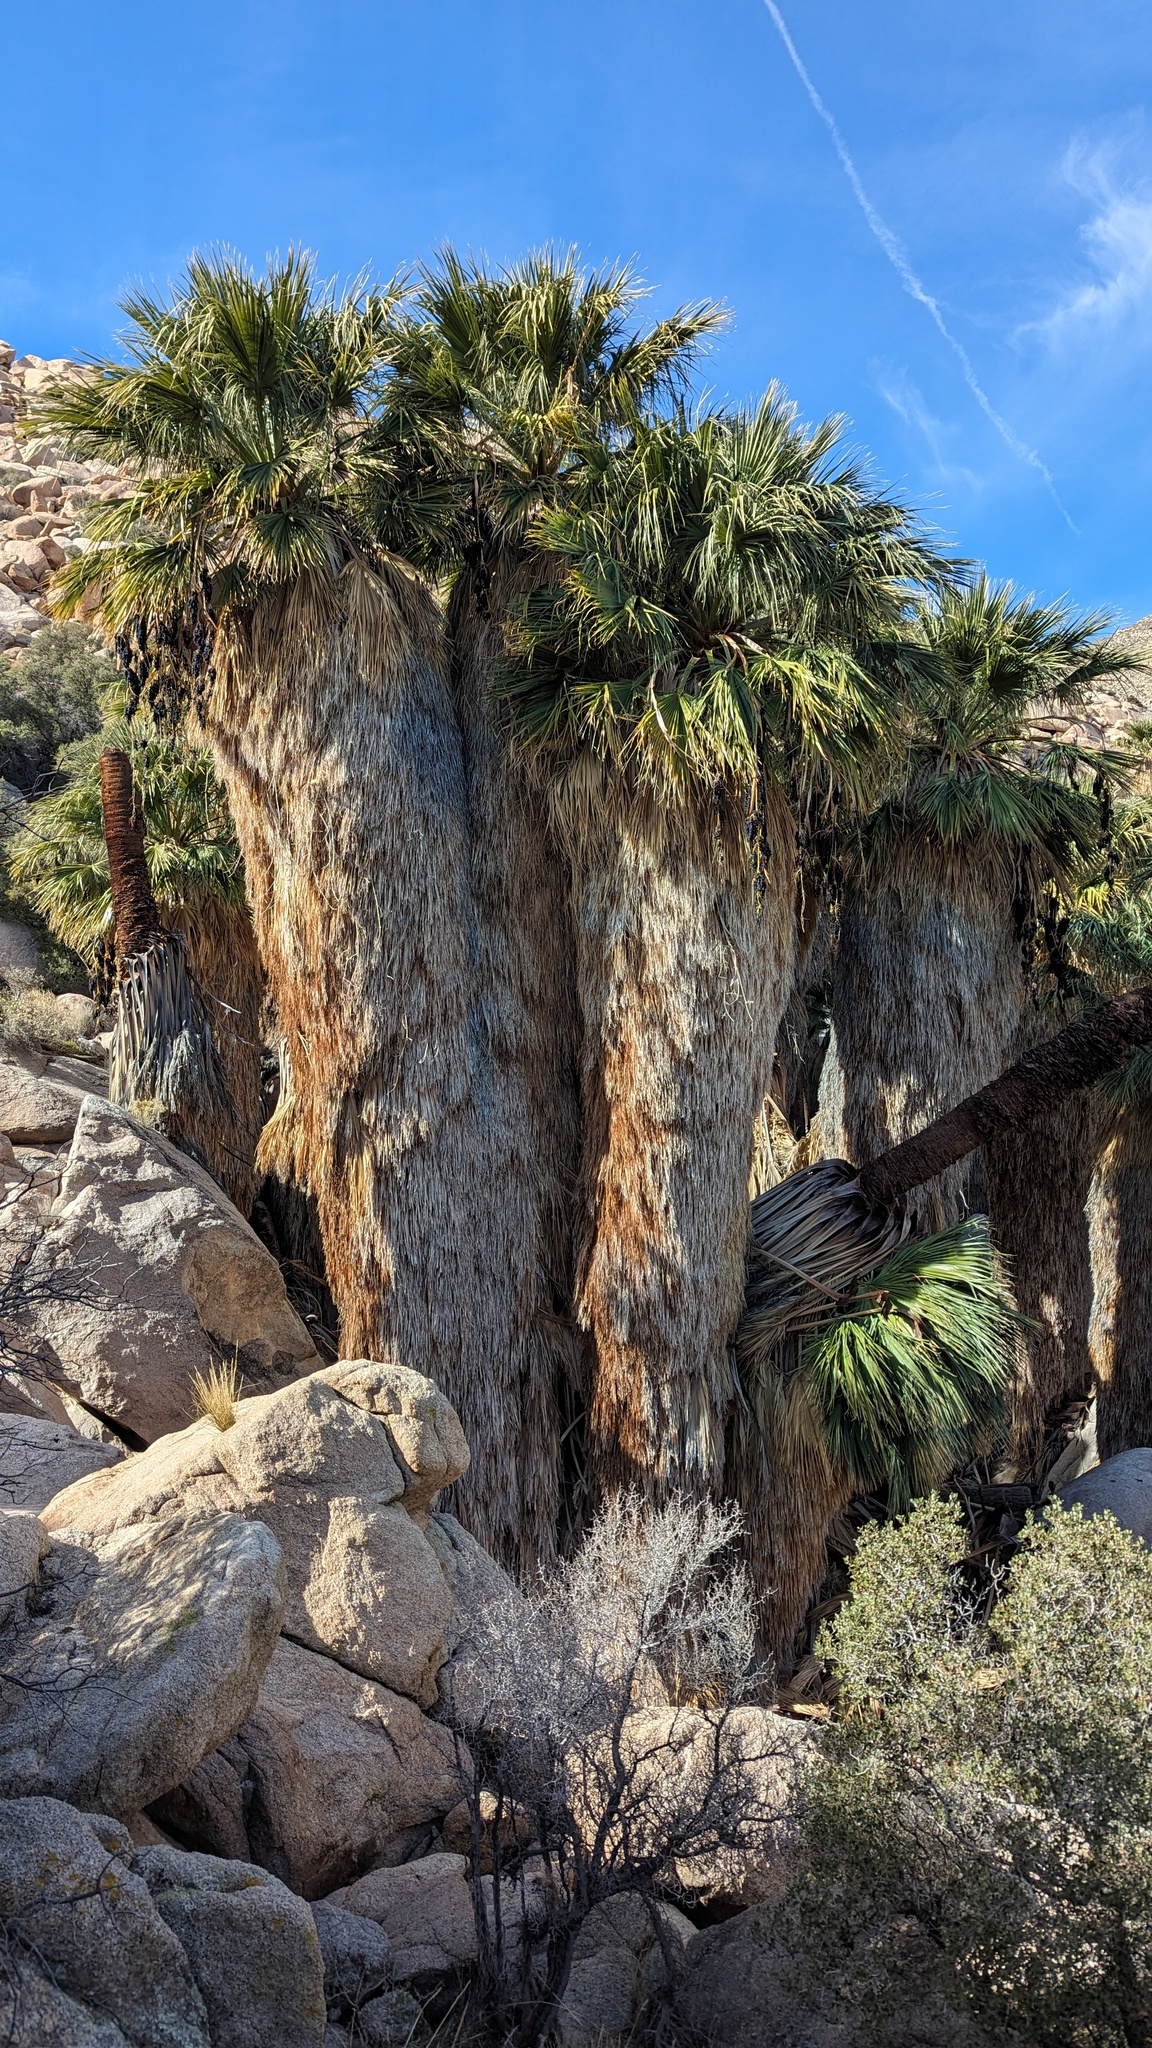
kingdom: Plantae
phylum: Tracheophyta
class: Liliopsida
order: Arecales
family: Arecaceae
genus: Washingtonia
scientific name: Washingtonia filifera
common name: California fan palm
